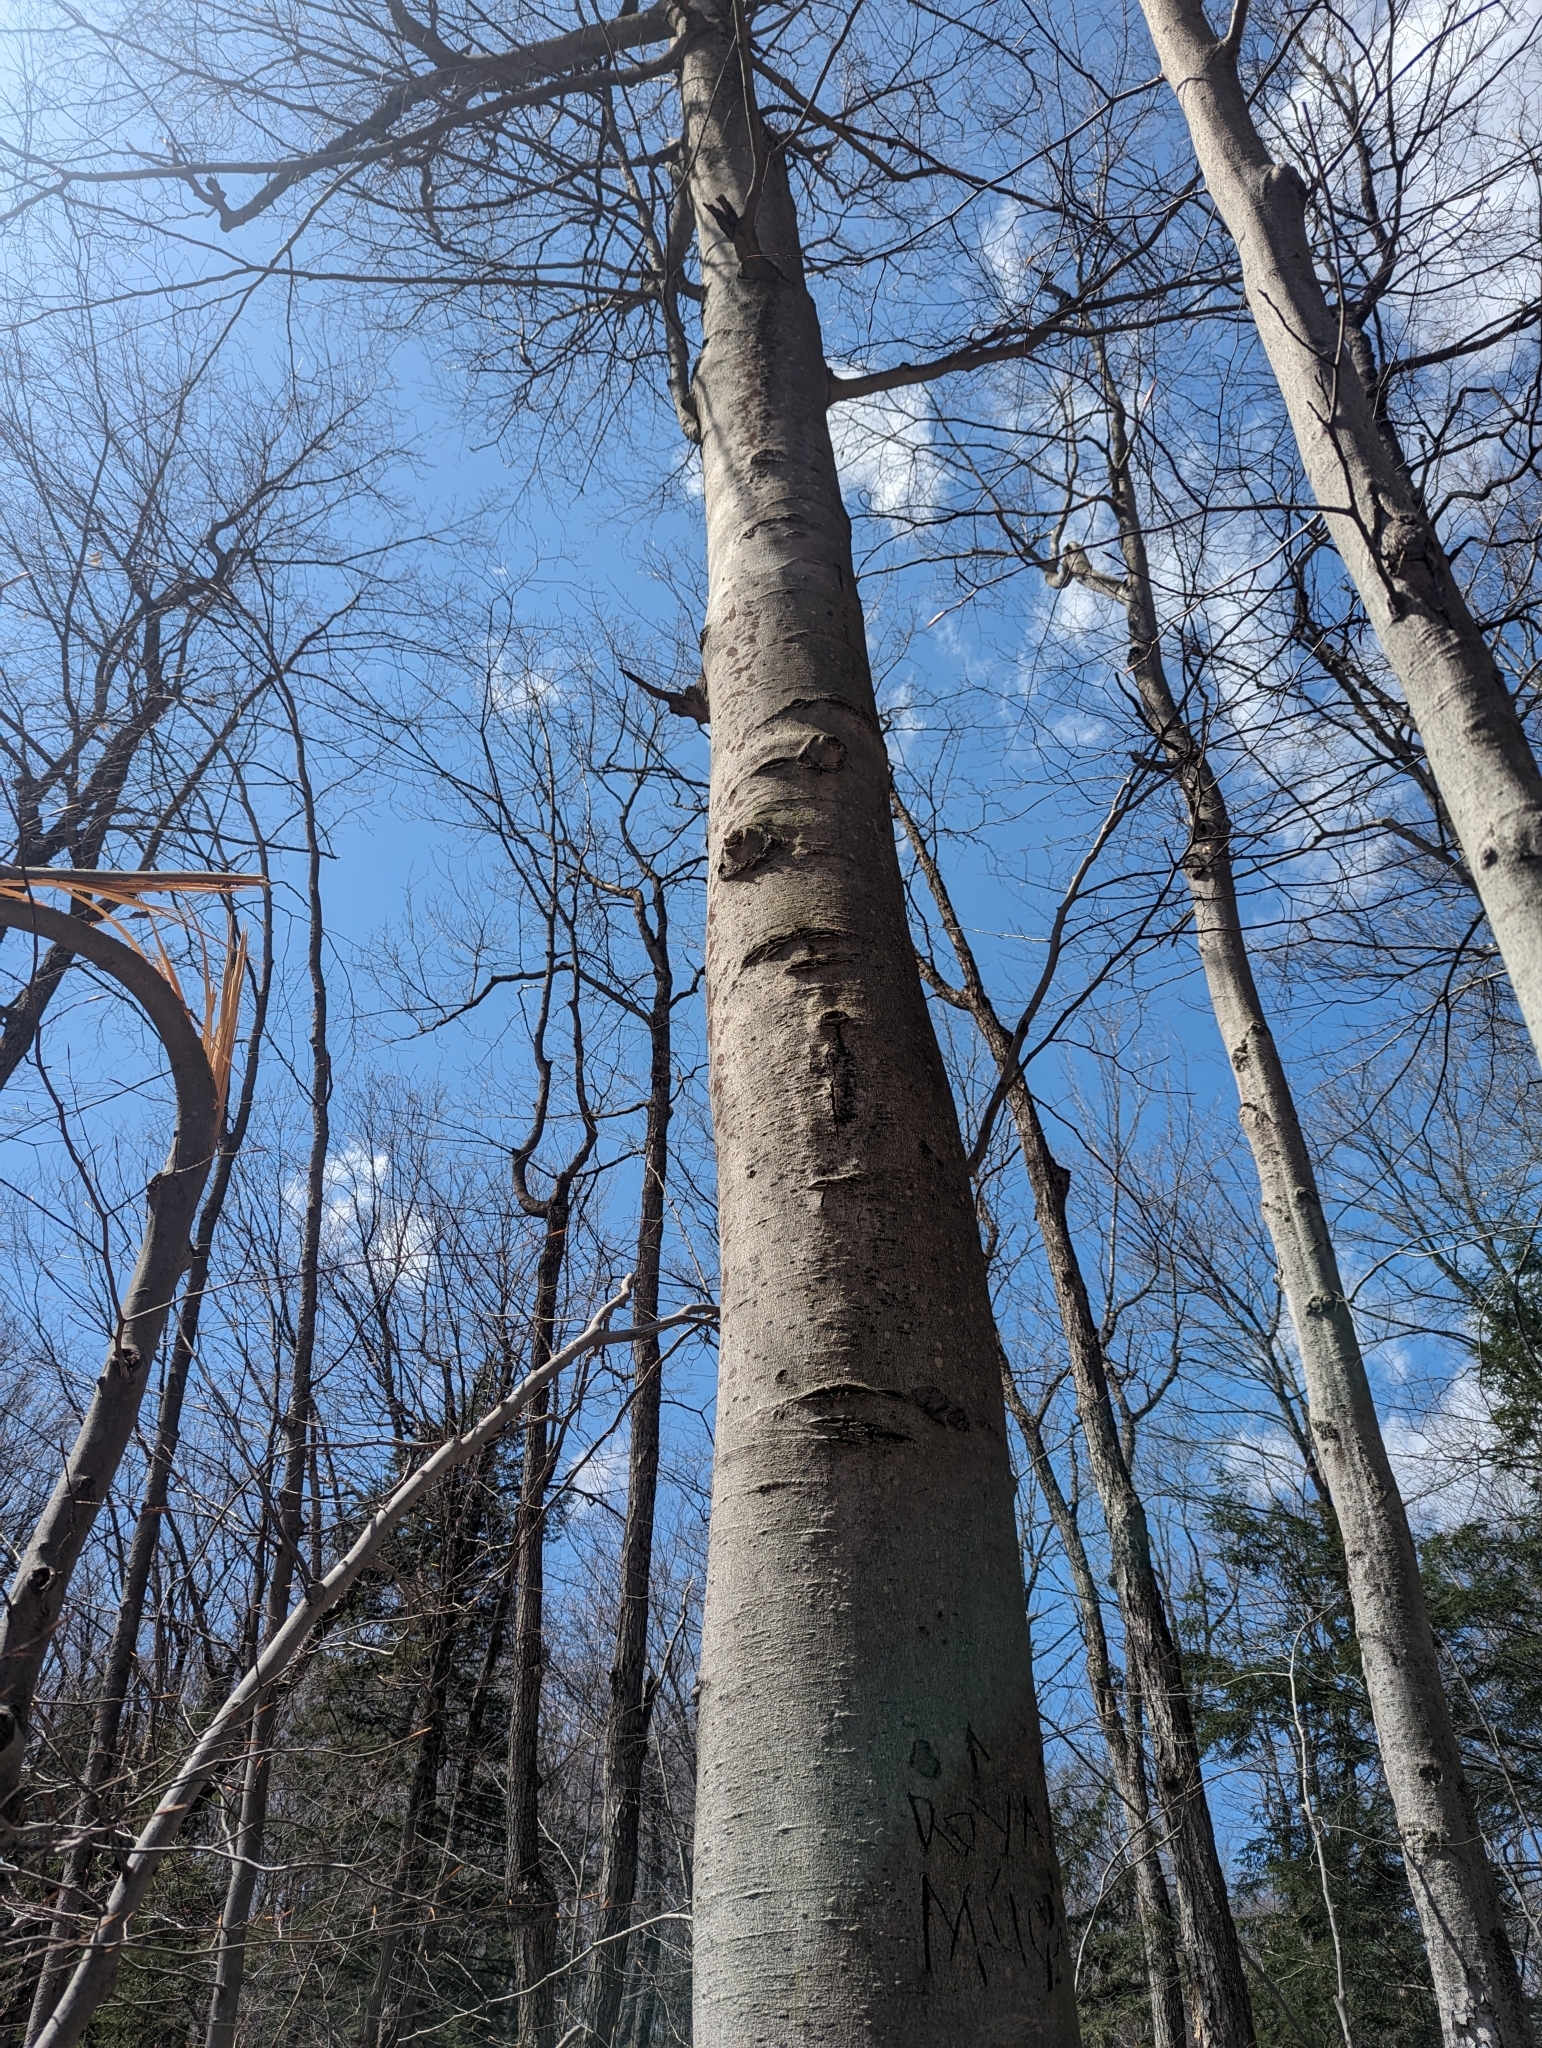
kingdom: Plantae
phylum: Tracheophyta
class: Magnoliopsida
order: Fagales
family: Fagaceae
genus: Fagus
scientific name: Fagus grandifolia
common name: American beech
